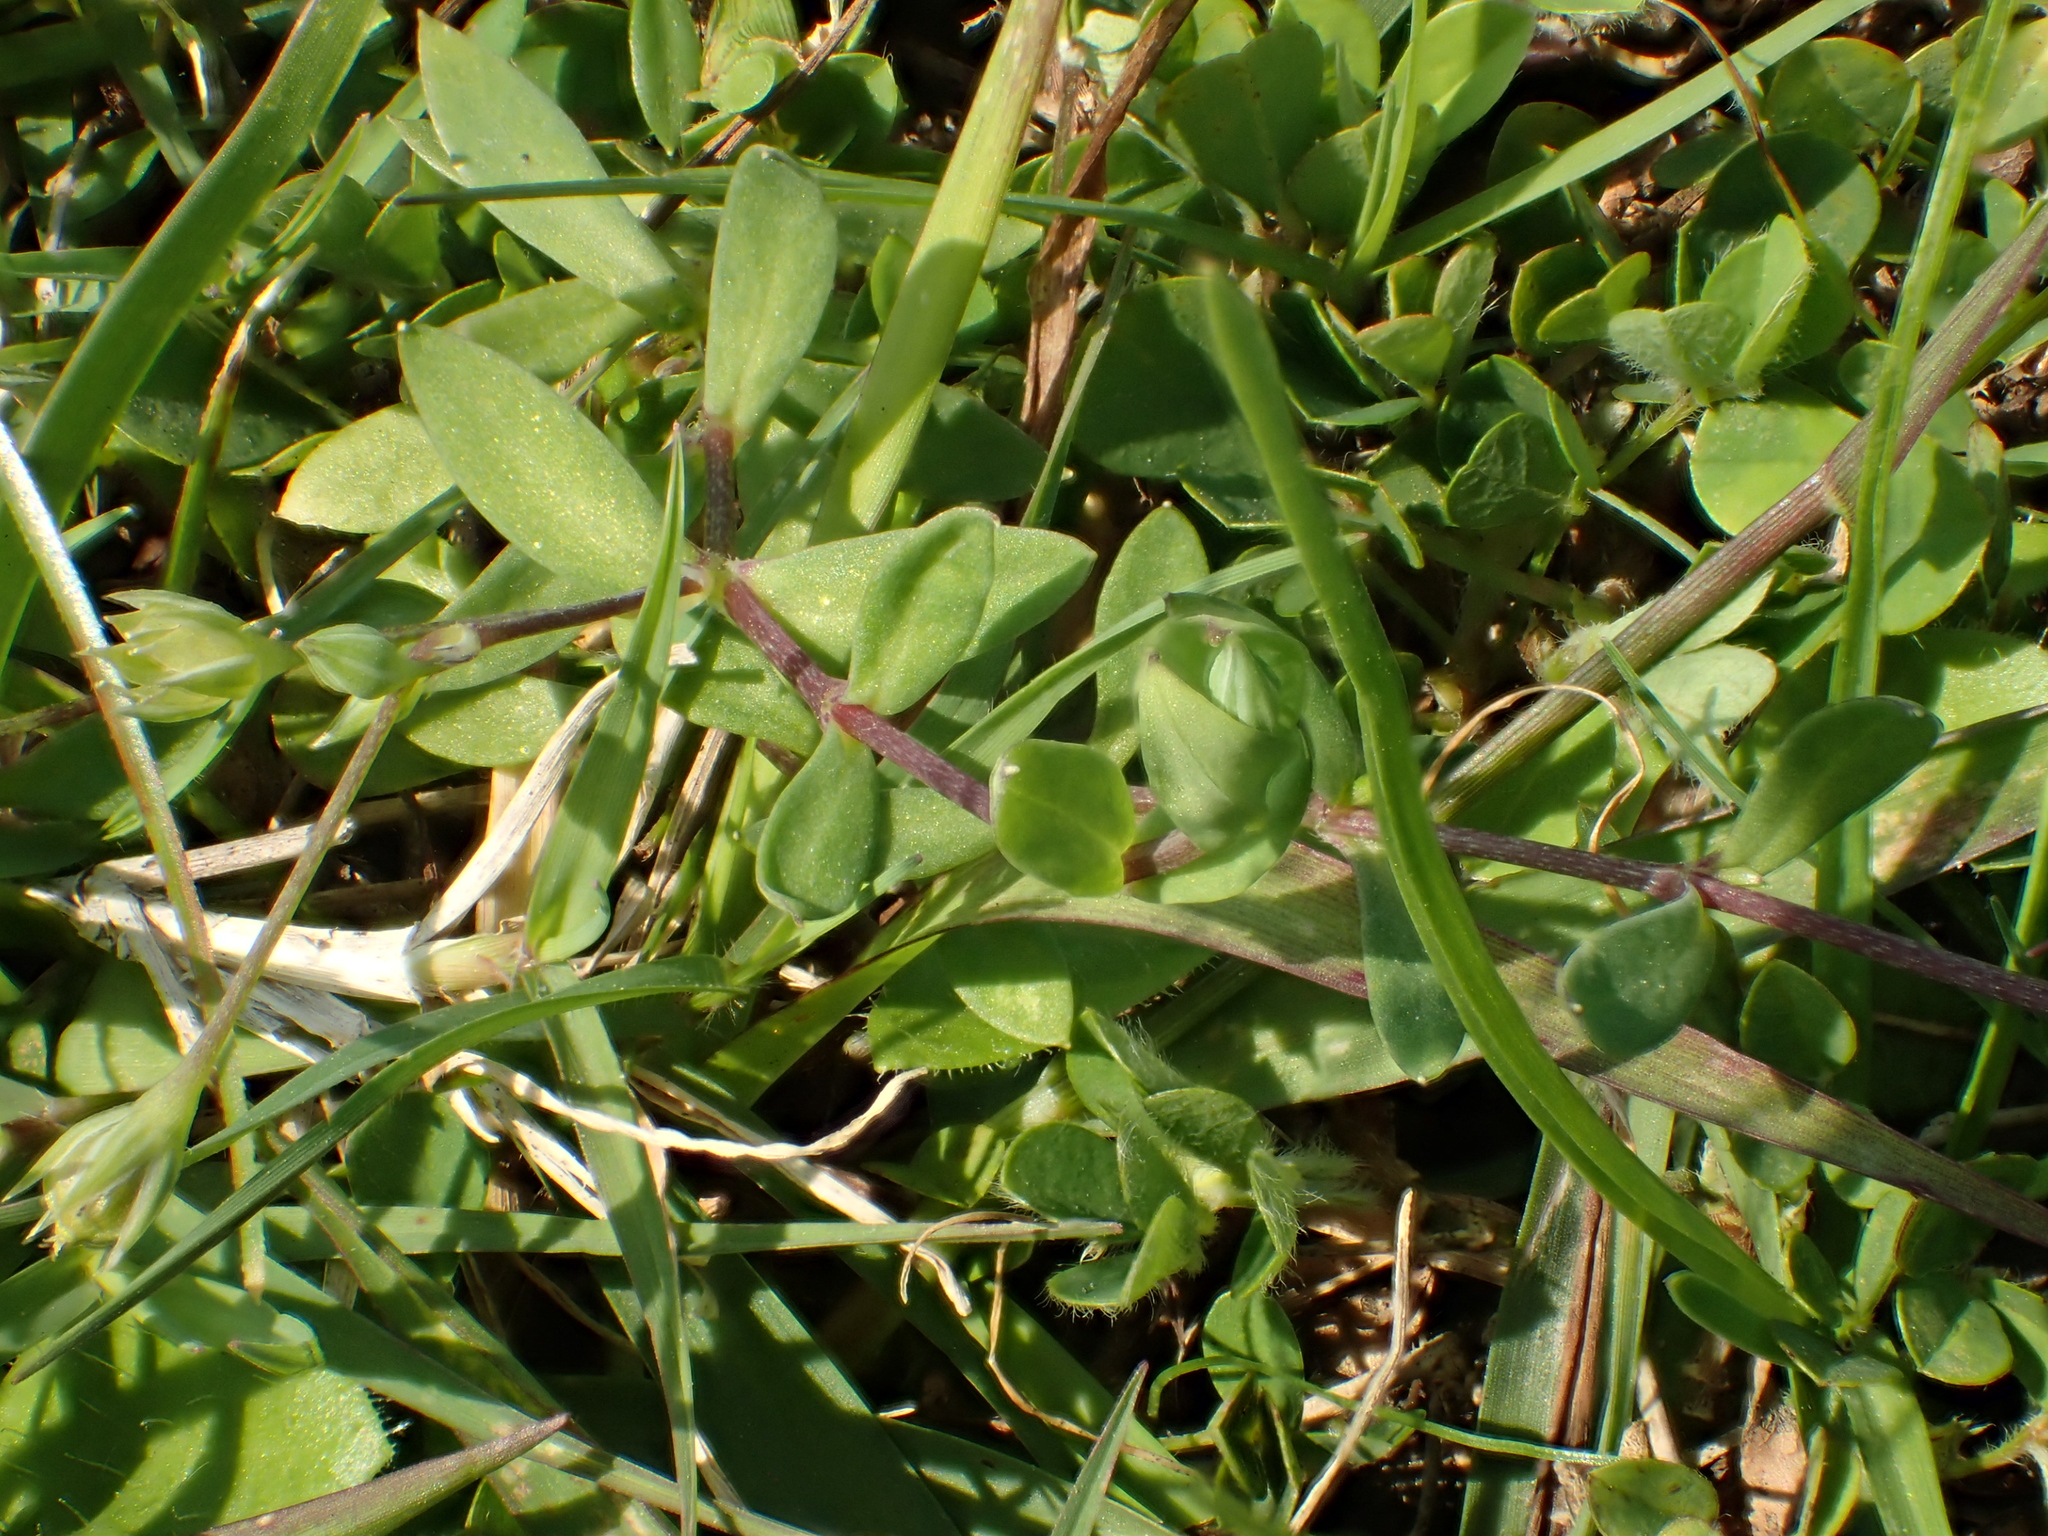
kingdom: Plantae
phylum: Tracheophyta
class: Magnoliopsida
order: Caryophyllales
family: Caryophyllaceae
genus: Stellaria
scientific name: Stellaria alsine
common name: Bog stitchwort
